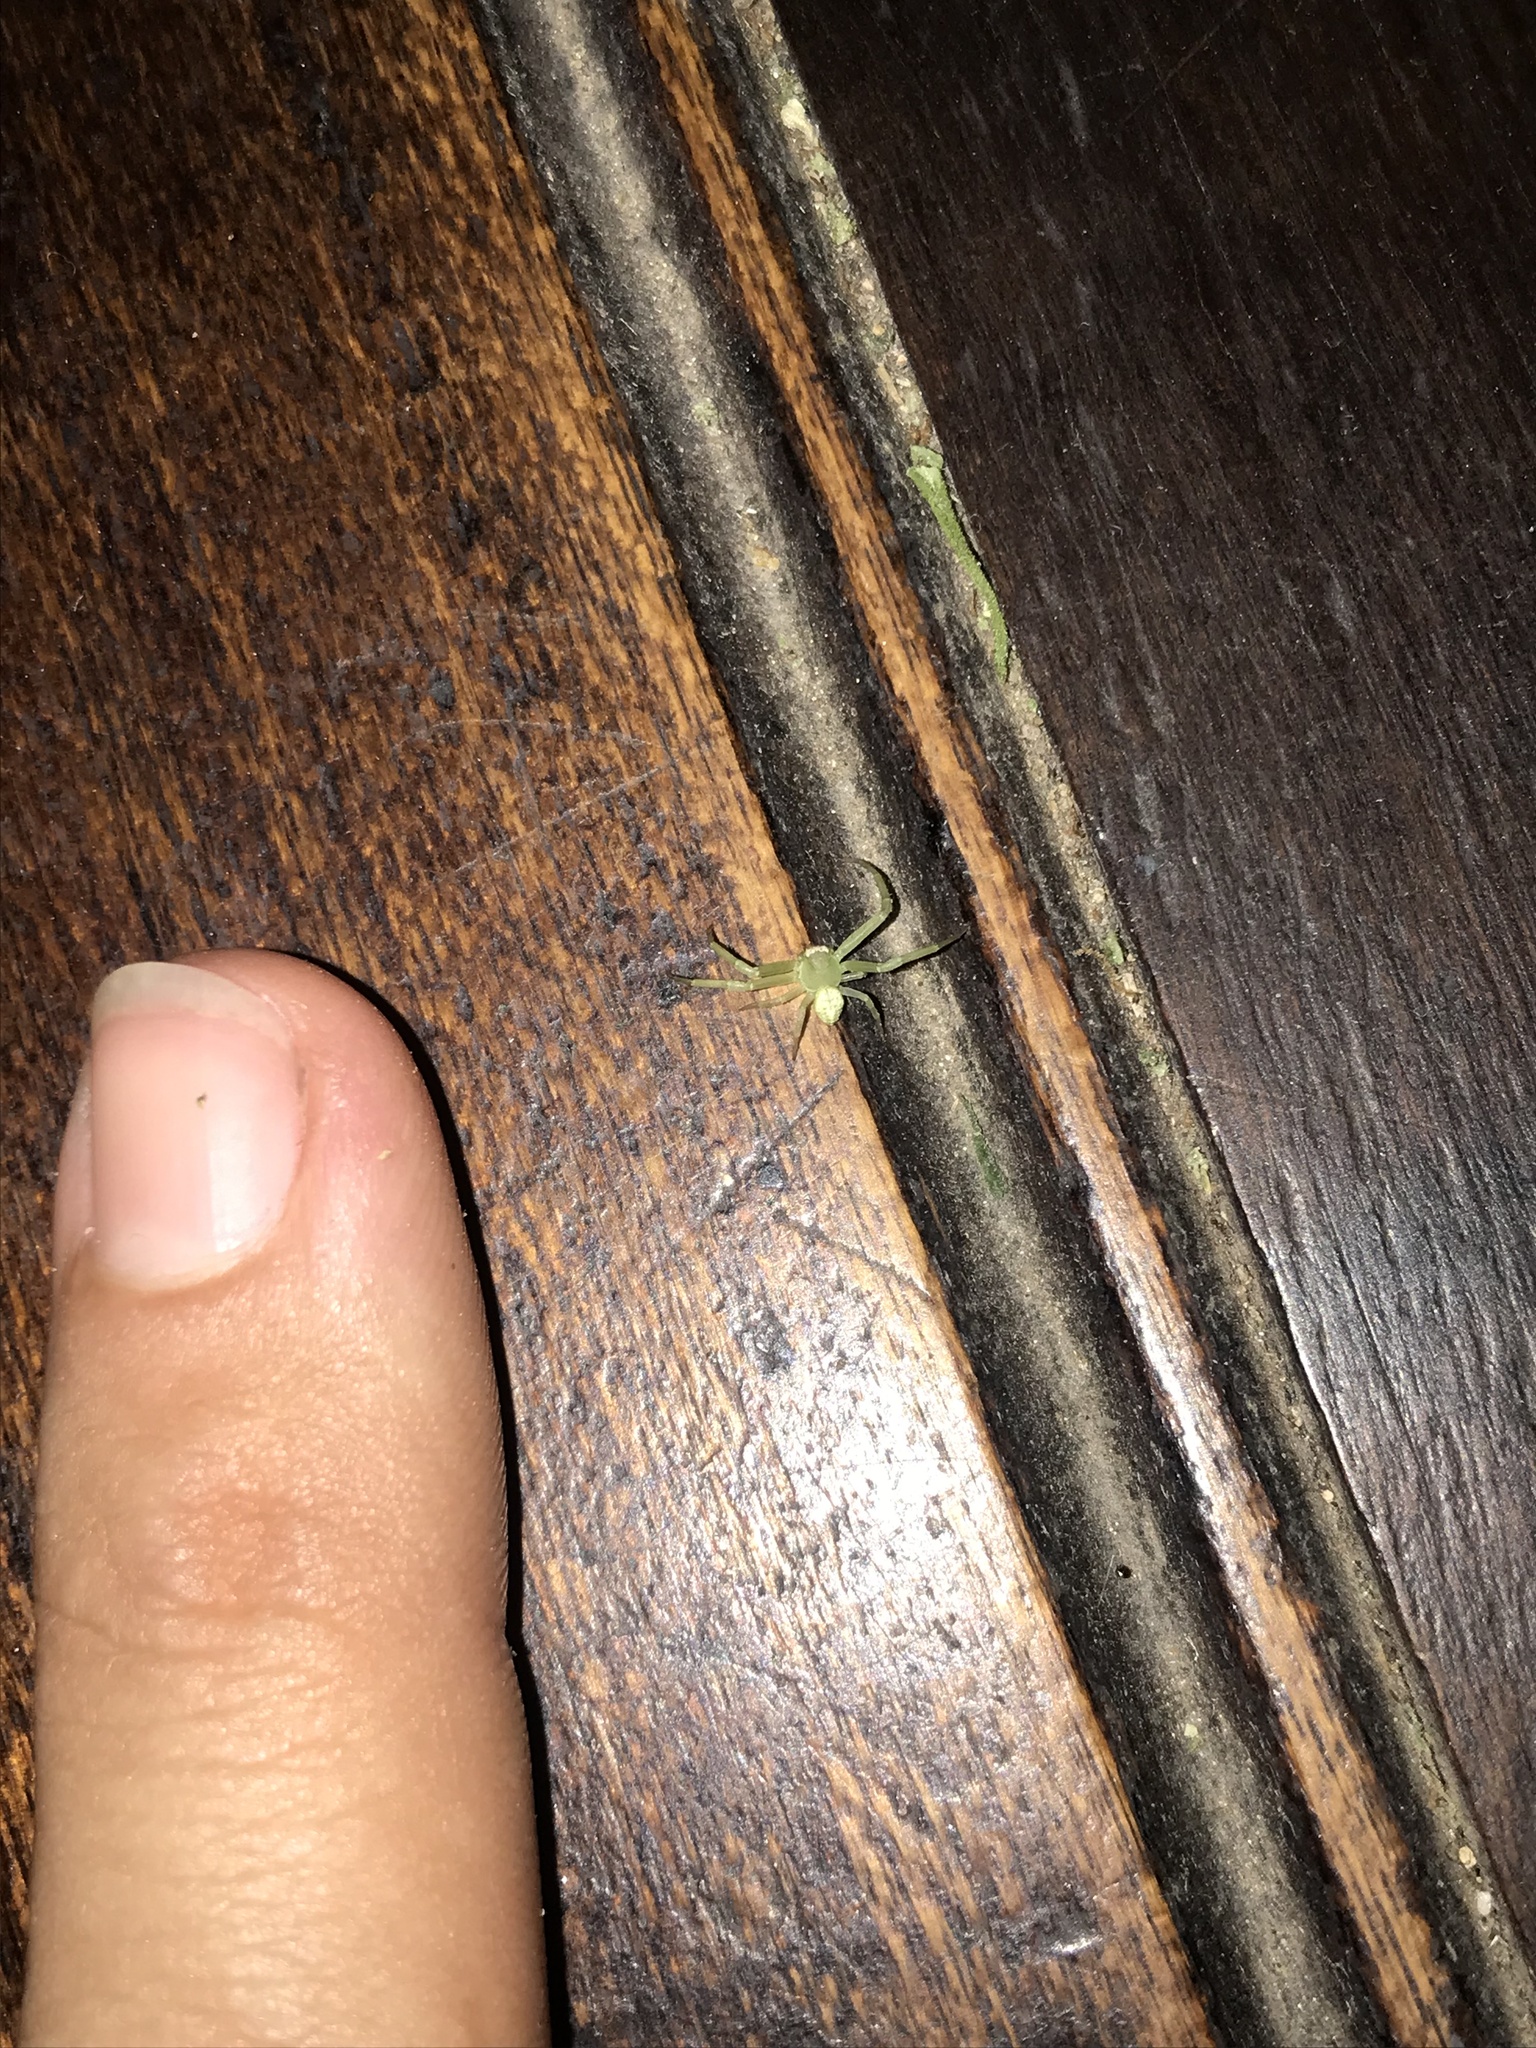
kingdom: Animalia
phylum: Arthropoda
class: Arachnida
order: Araneae
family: Thomisidae
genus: Misumenops
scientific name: Misumenops
